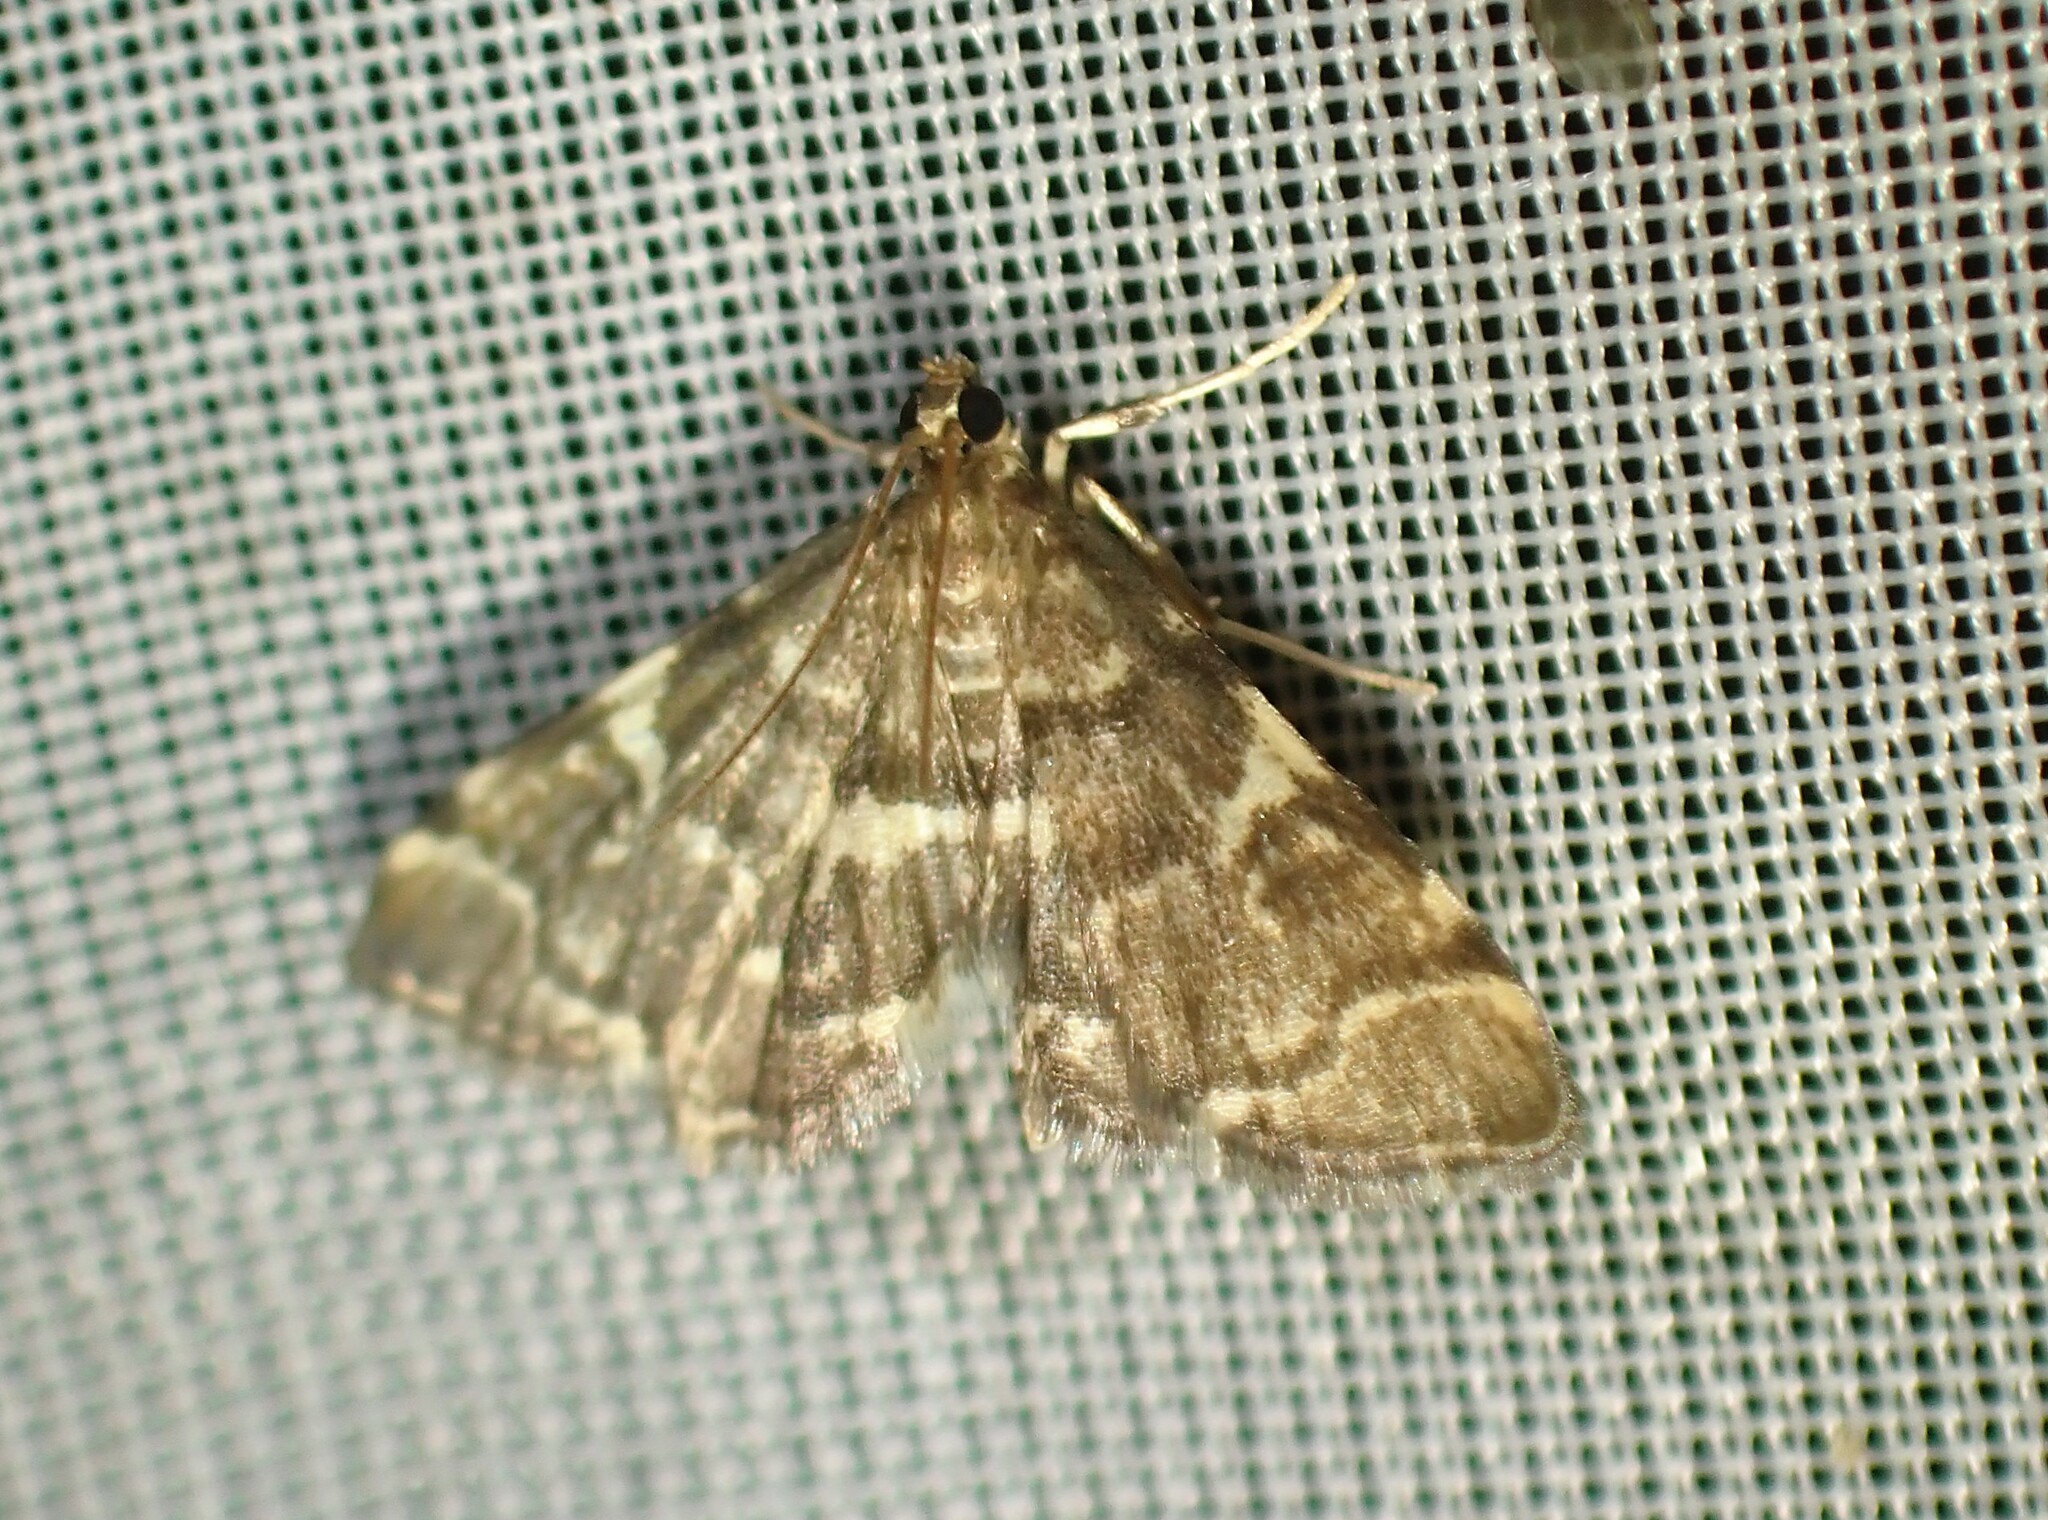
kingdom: Animalia
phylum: Arthropoda
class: Insecta
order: Lepidoptera
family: Crambidae
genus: Anageshna
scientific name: Anageshna primordialis
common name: Yellow-spotted webworm moth
